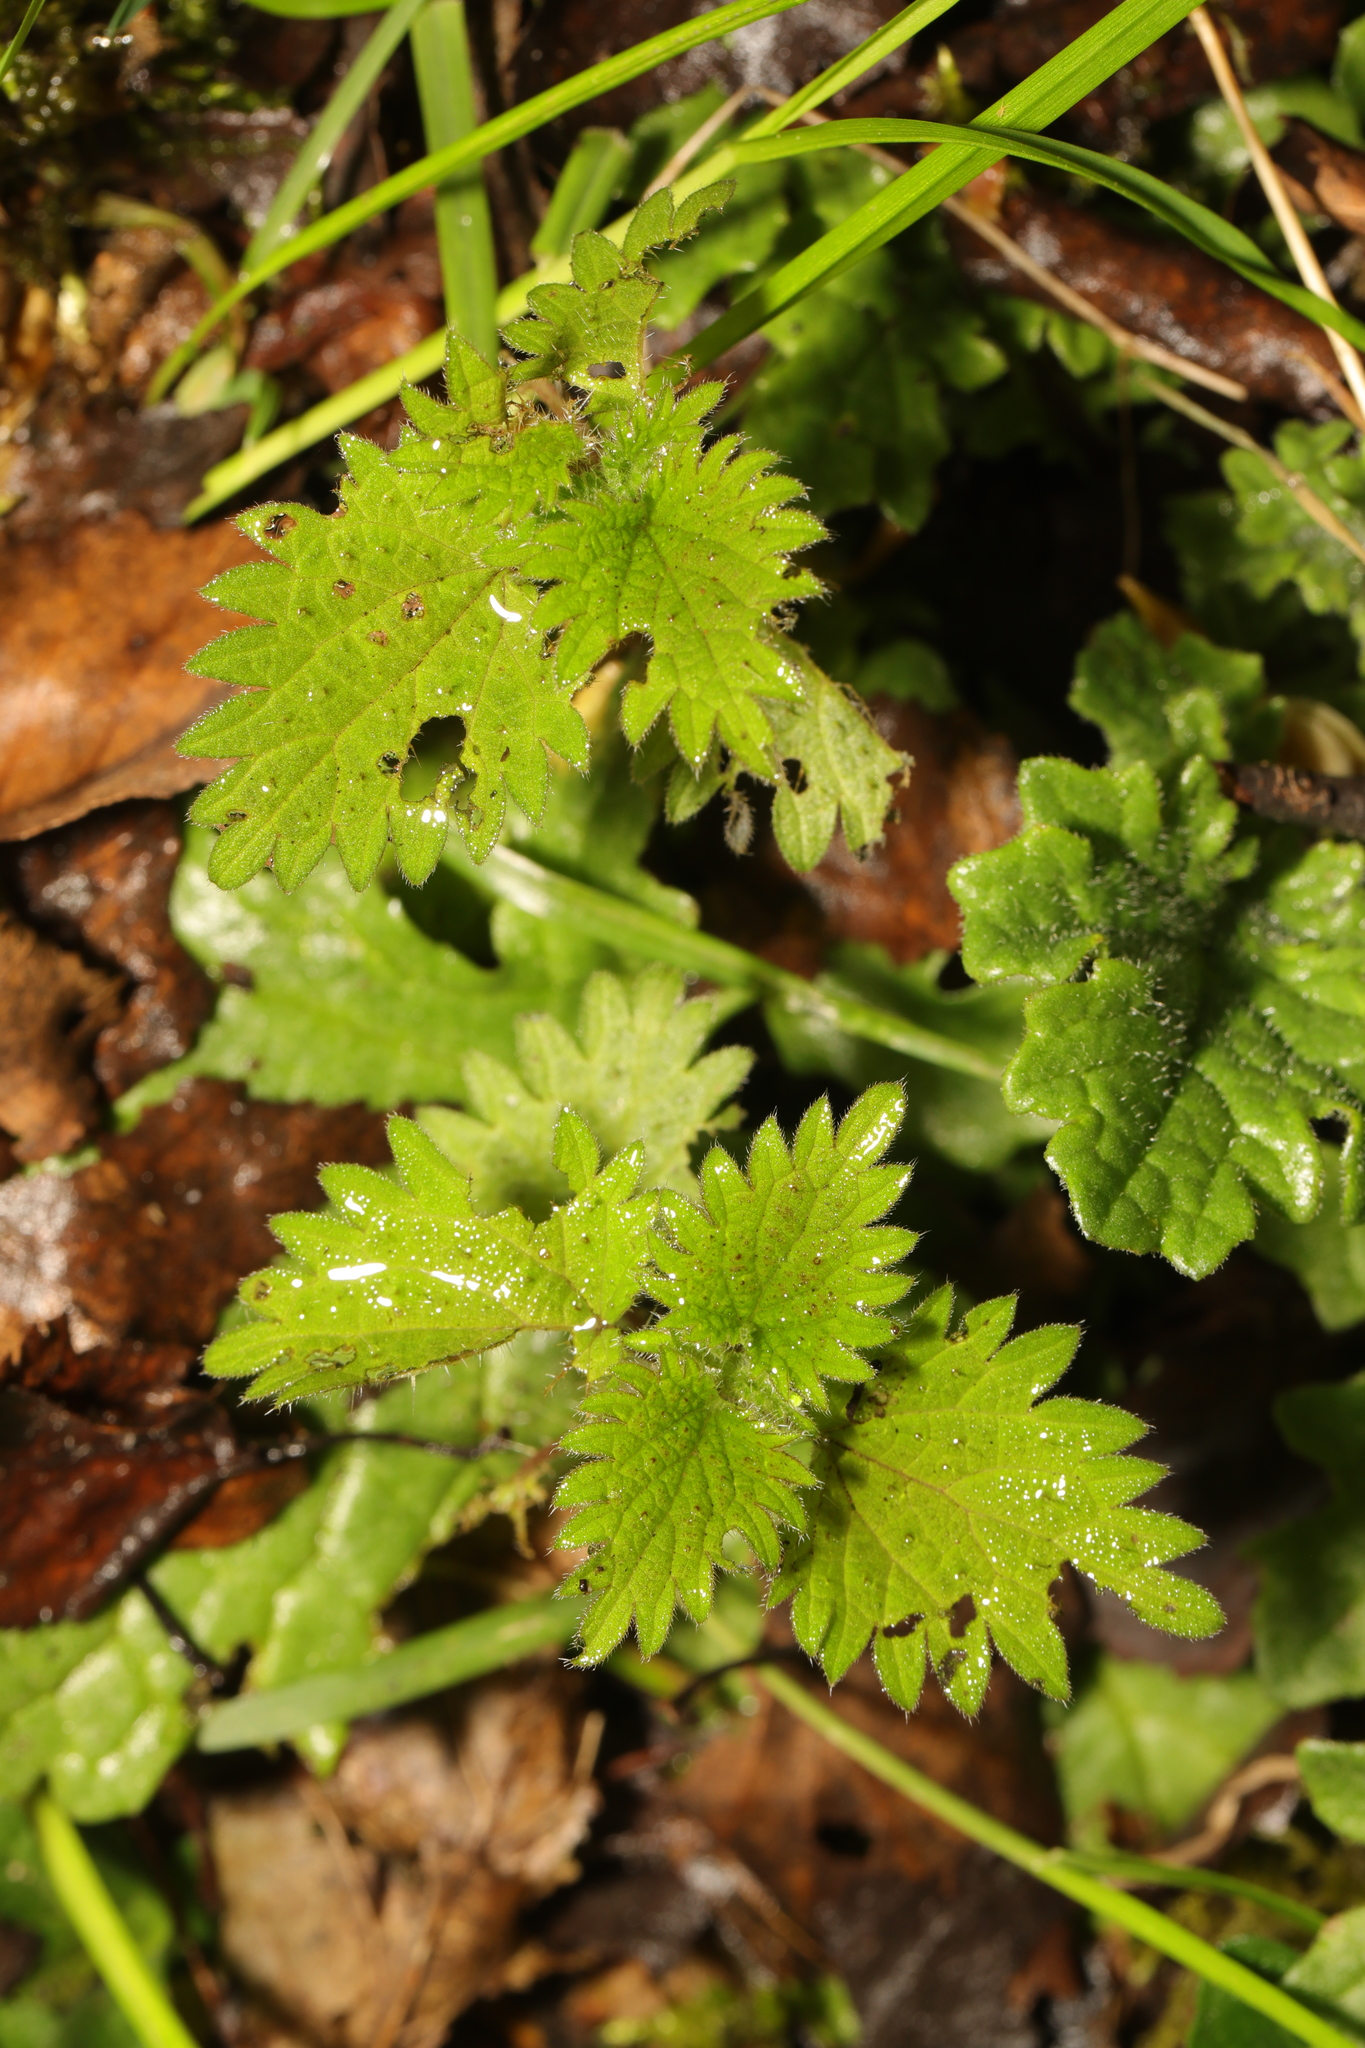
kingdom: Plantae
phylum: Tracheophyta
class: Magnoliopsida
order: Rosales
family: Urticaceae
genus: Urtica
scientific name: Urtica dioica
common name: Common nettle
